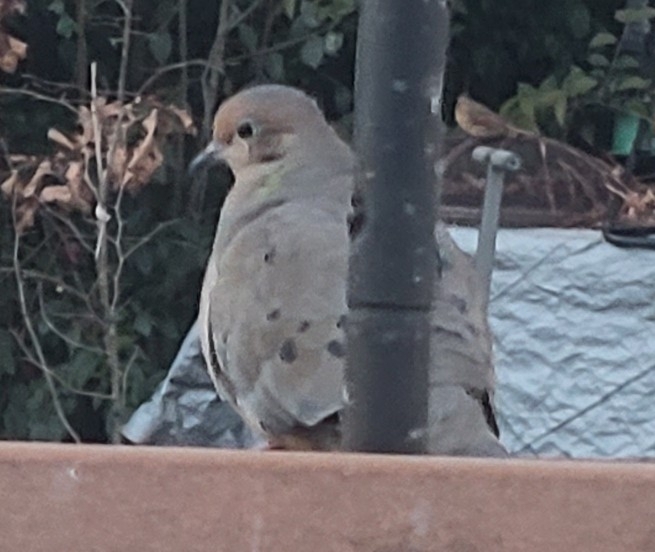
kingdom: Animalia
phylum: Chordata
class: Aves
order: Columbiformes
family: Columbidae
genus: Zenaida
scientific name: Zenaida macroura
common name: Mourning dove
